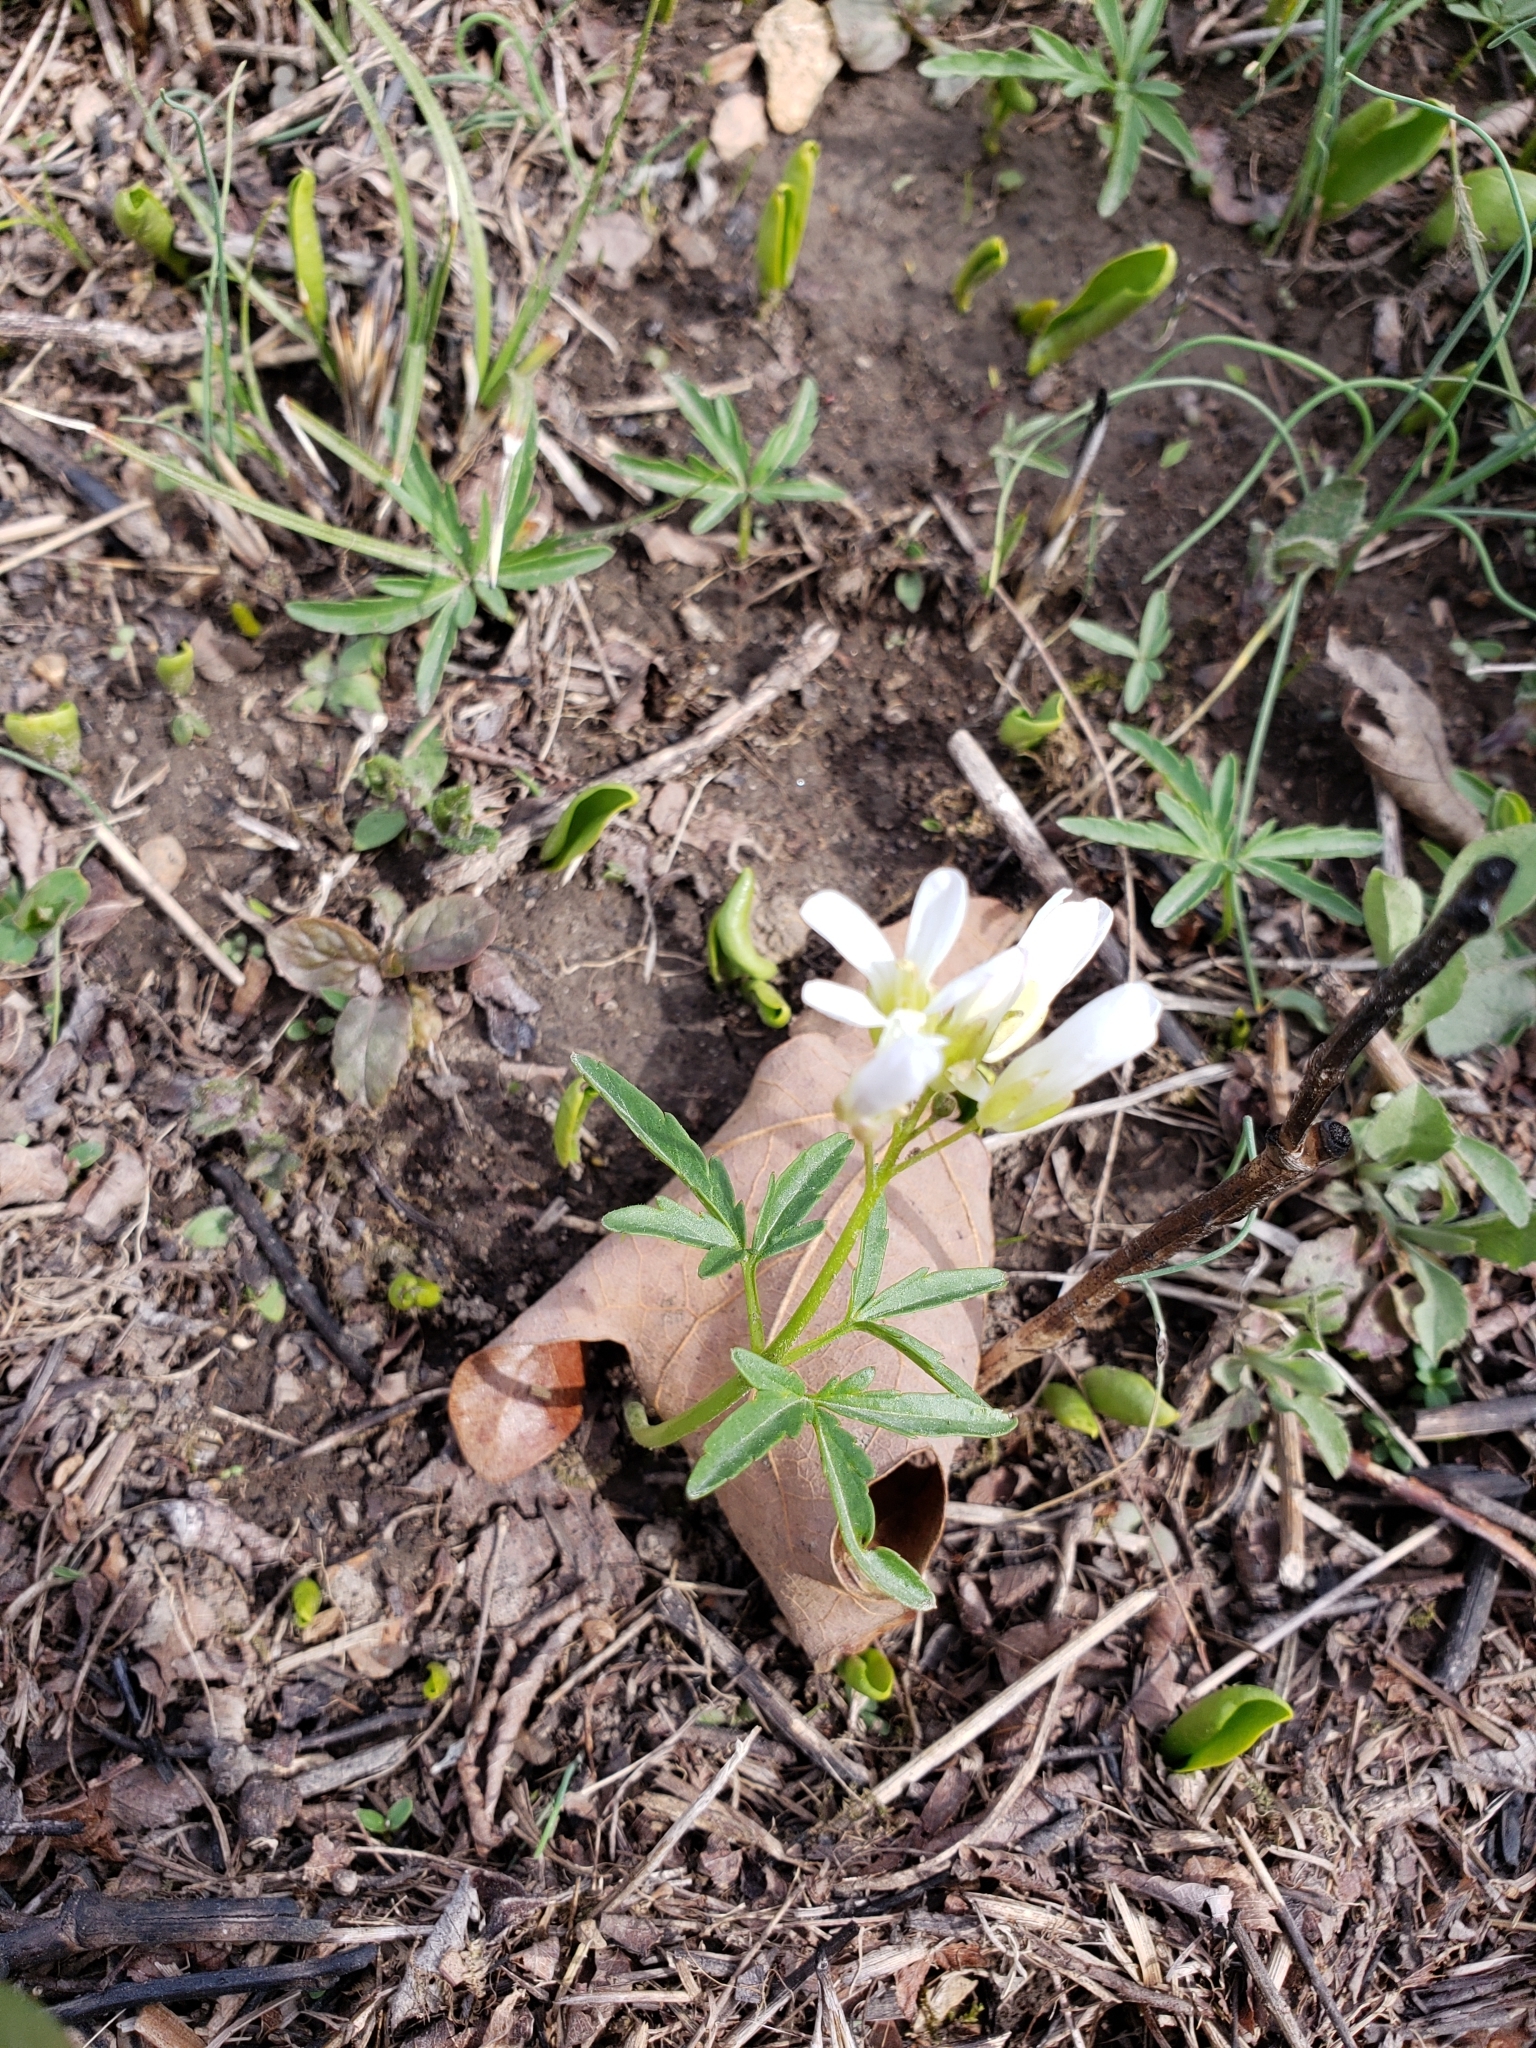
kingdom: Plantae
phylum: Tracheophyta
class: Magnoliopsida
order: Brassicales
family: Brassicaceae
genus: Cardamine
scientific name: Cardamine concatenata
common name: Cut-leaf toothcup
